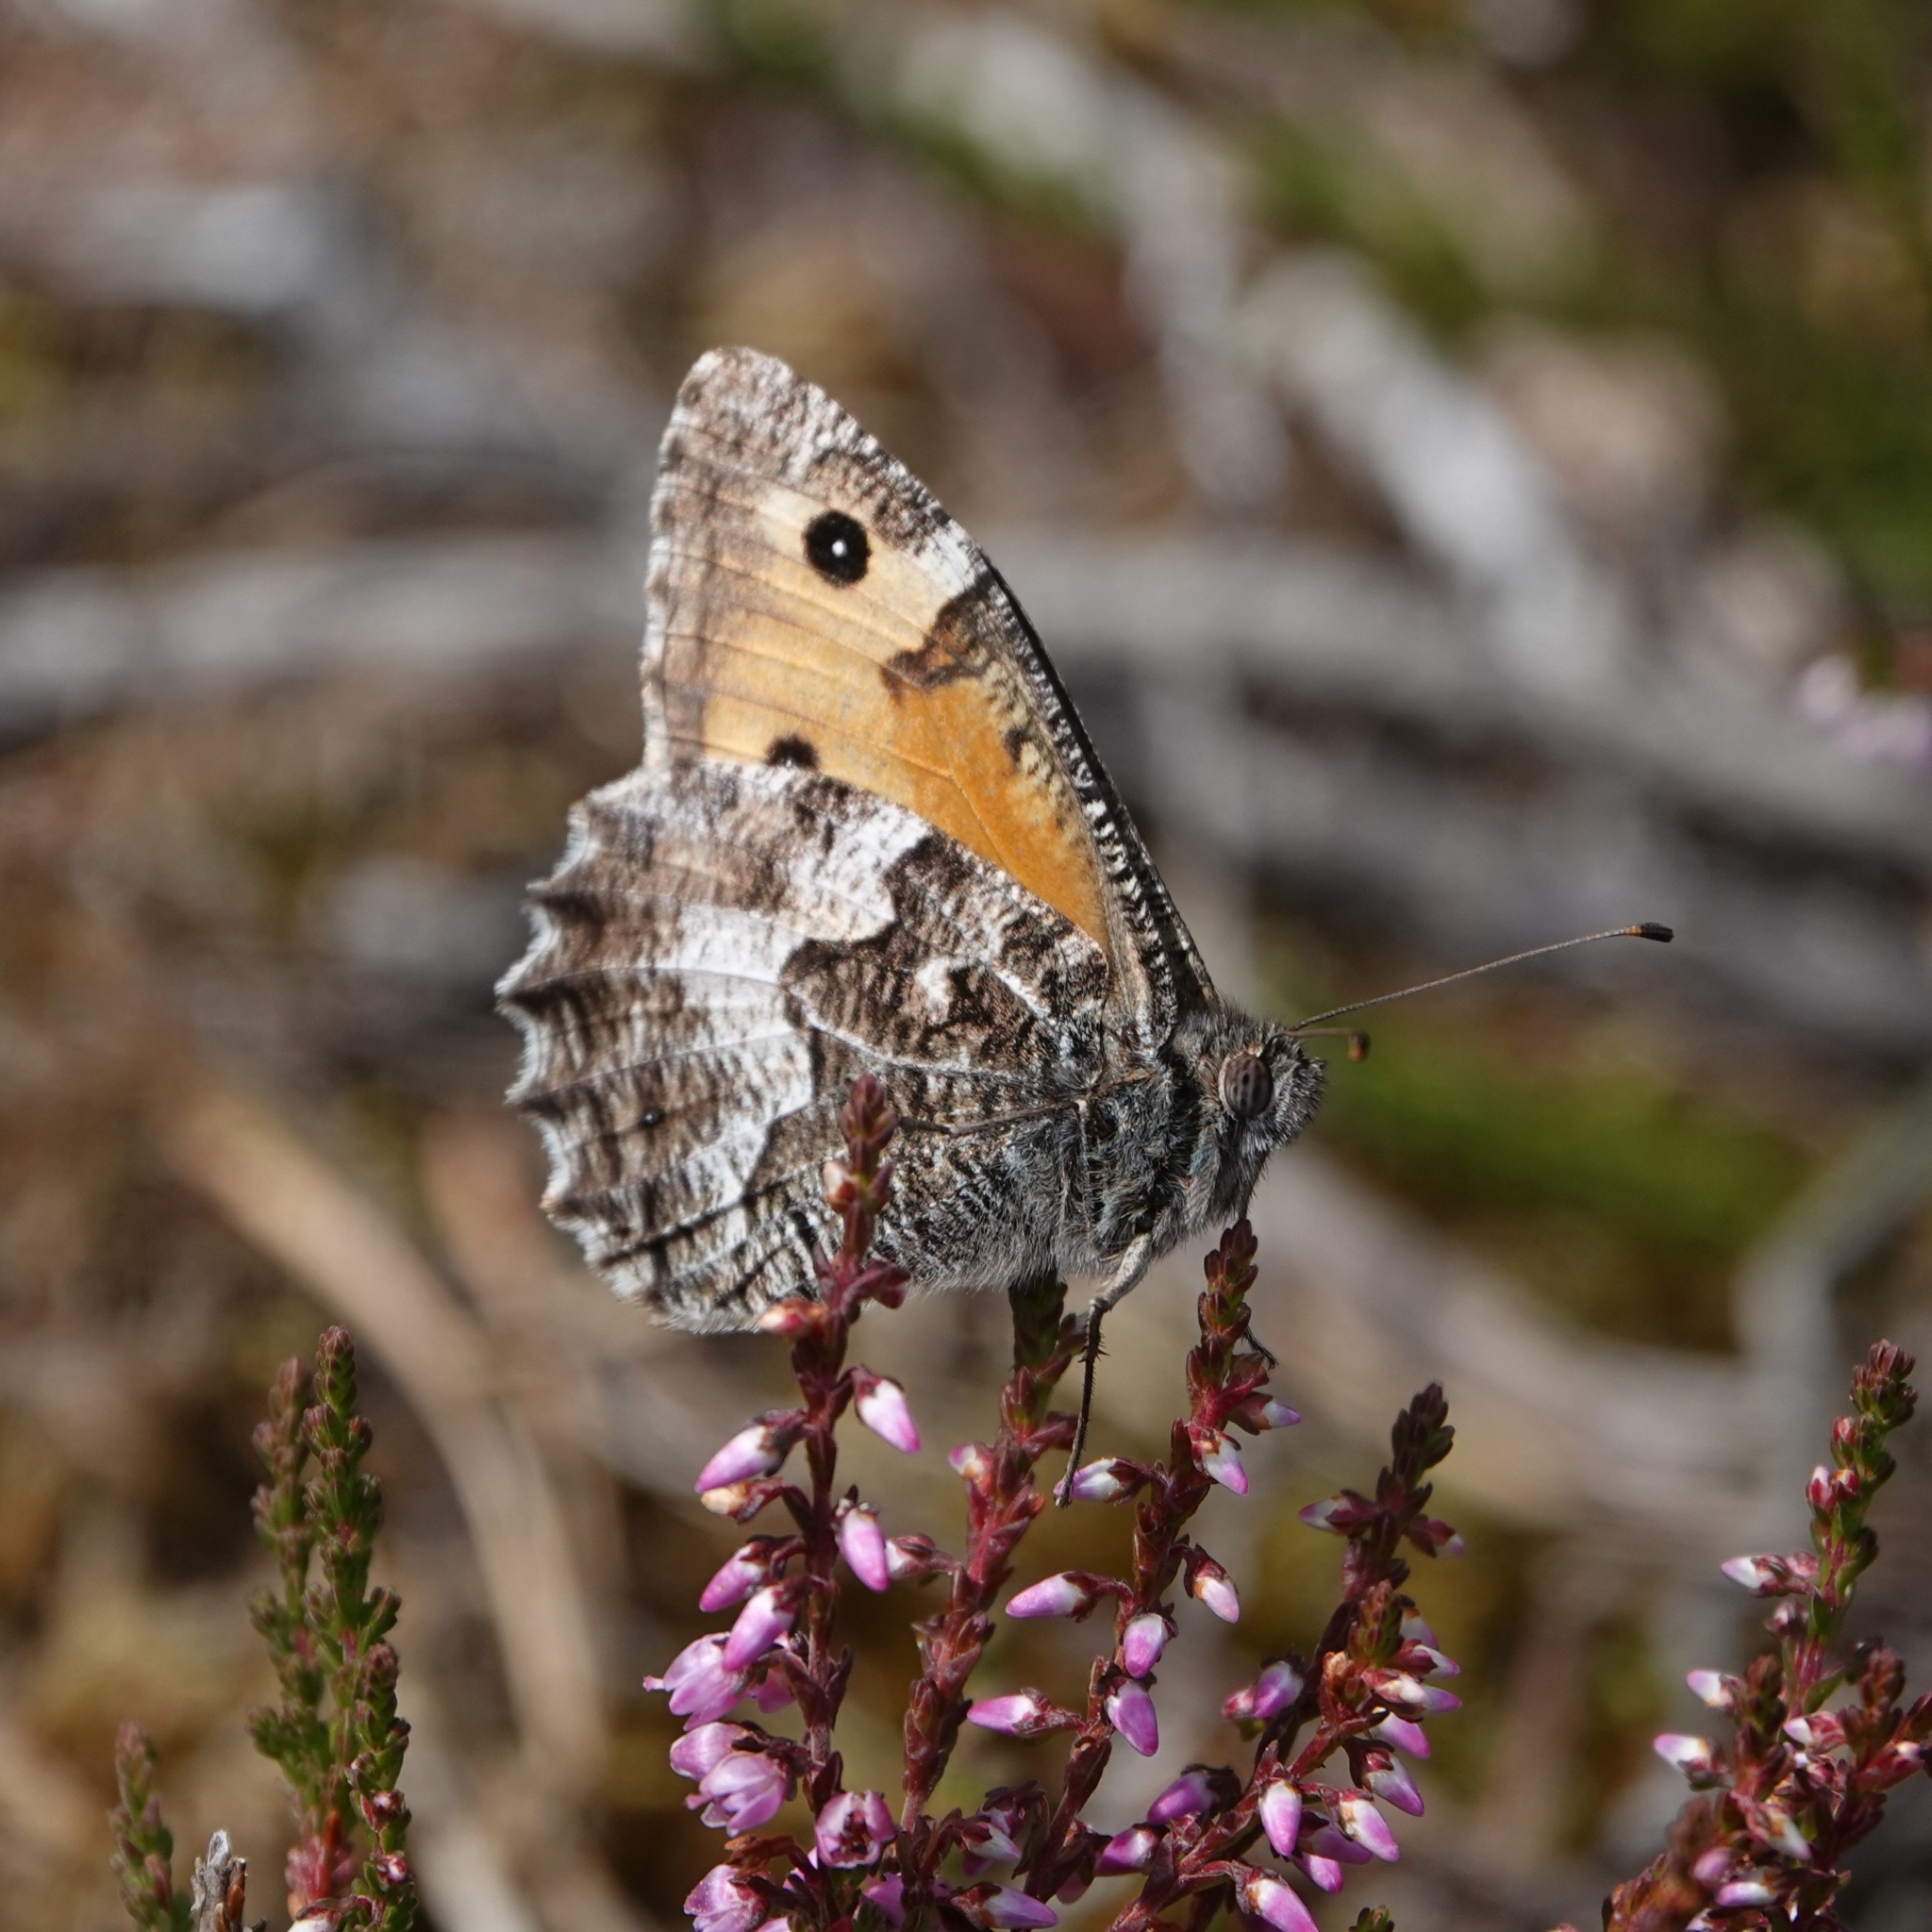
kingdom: Animalia
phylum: Arthropoda
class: Insecta
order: Lepidoptera
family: Nymphalidae
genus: Hipparchia
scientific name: Hipparchia semele
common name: Grayling
